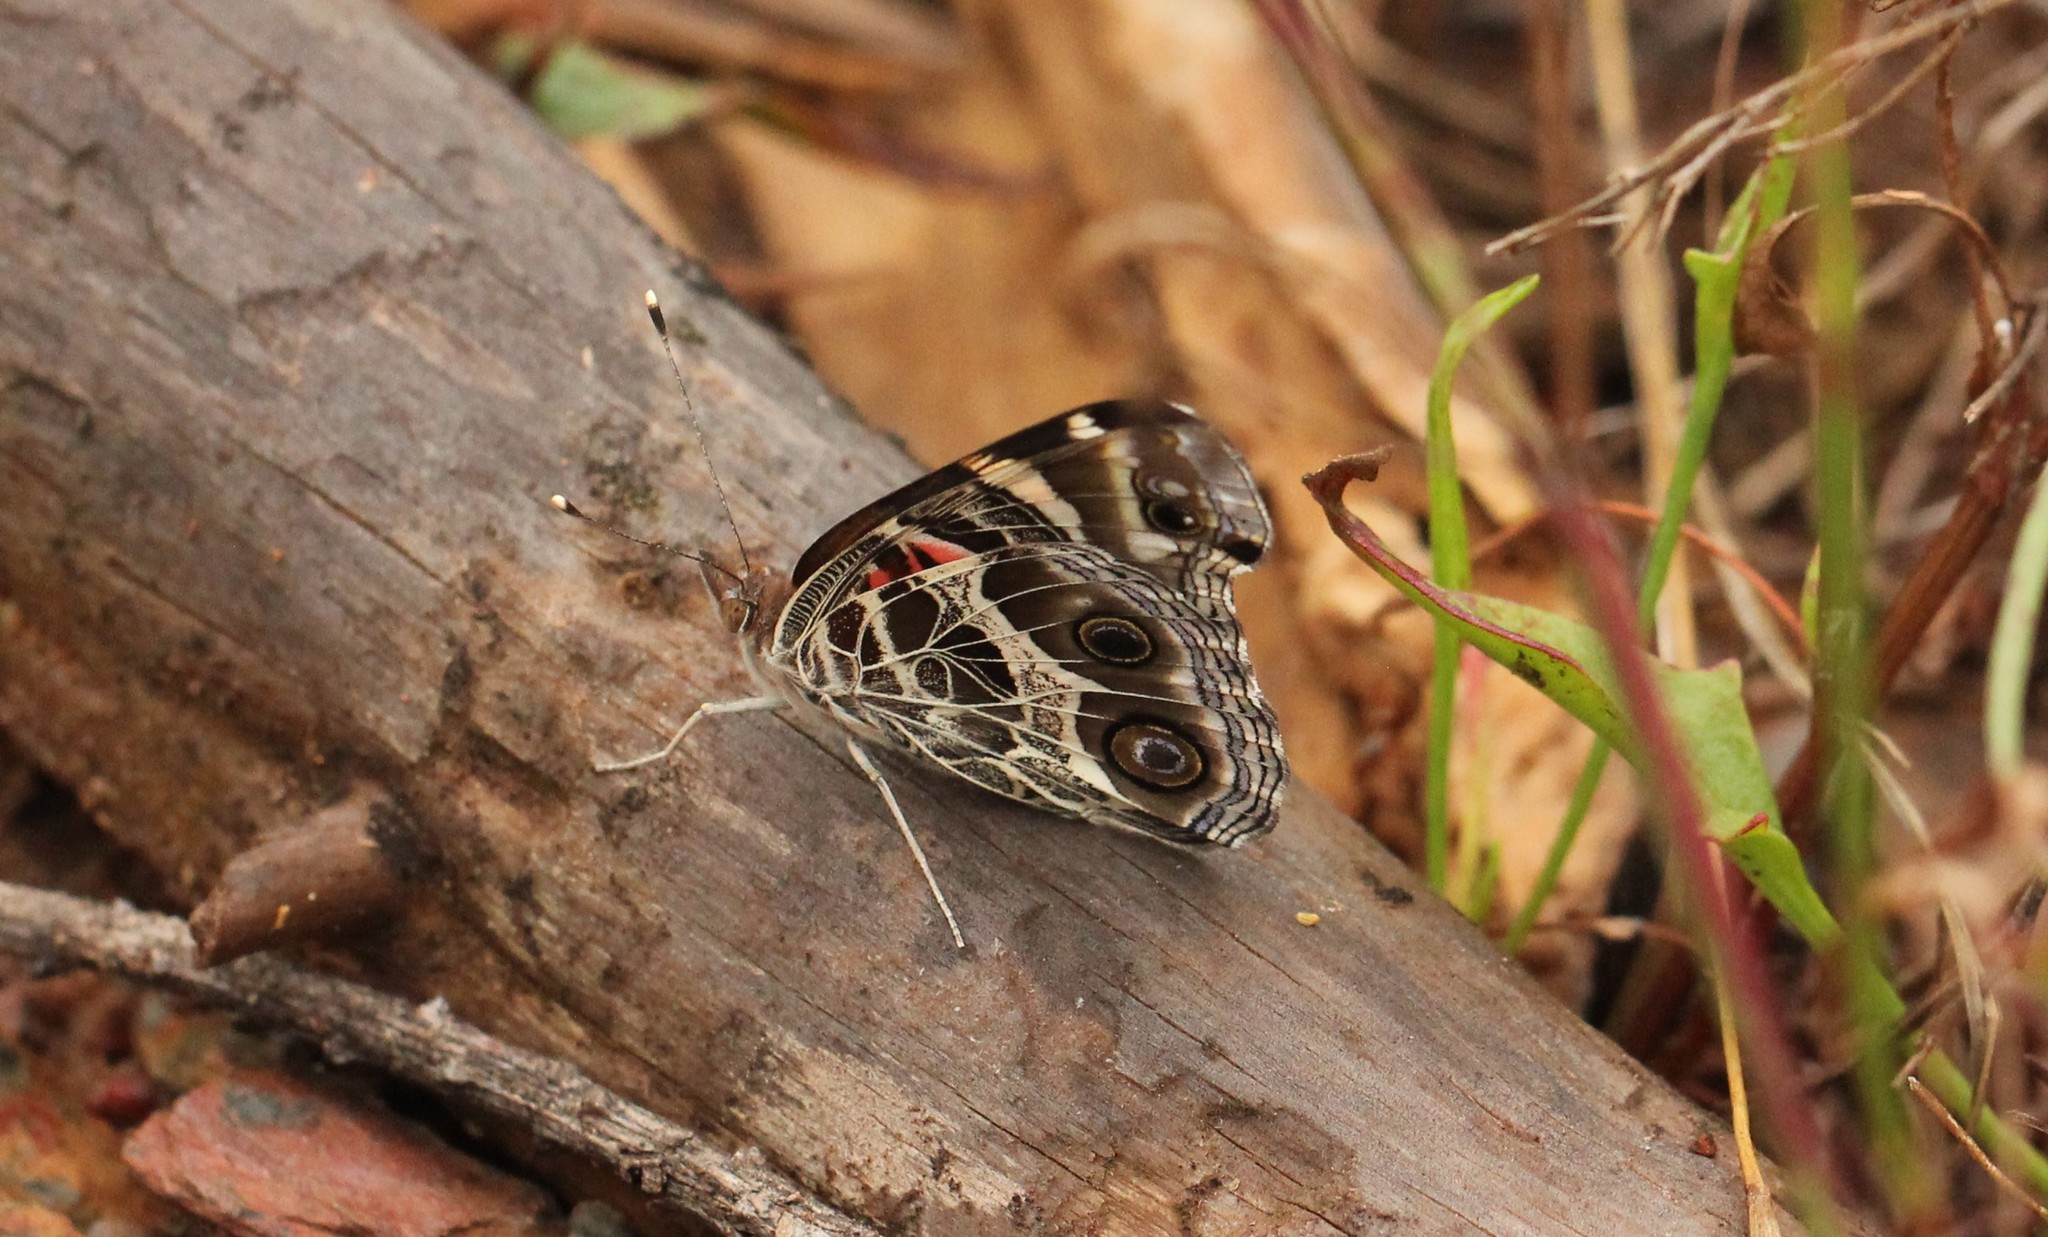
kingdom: Animalia
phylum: Arthropoda
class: Insecta
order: Lepidoptera
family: Nymphalidae
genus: Vanessa
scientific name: Vanessa virginiensis
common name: American lady
